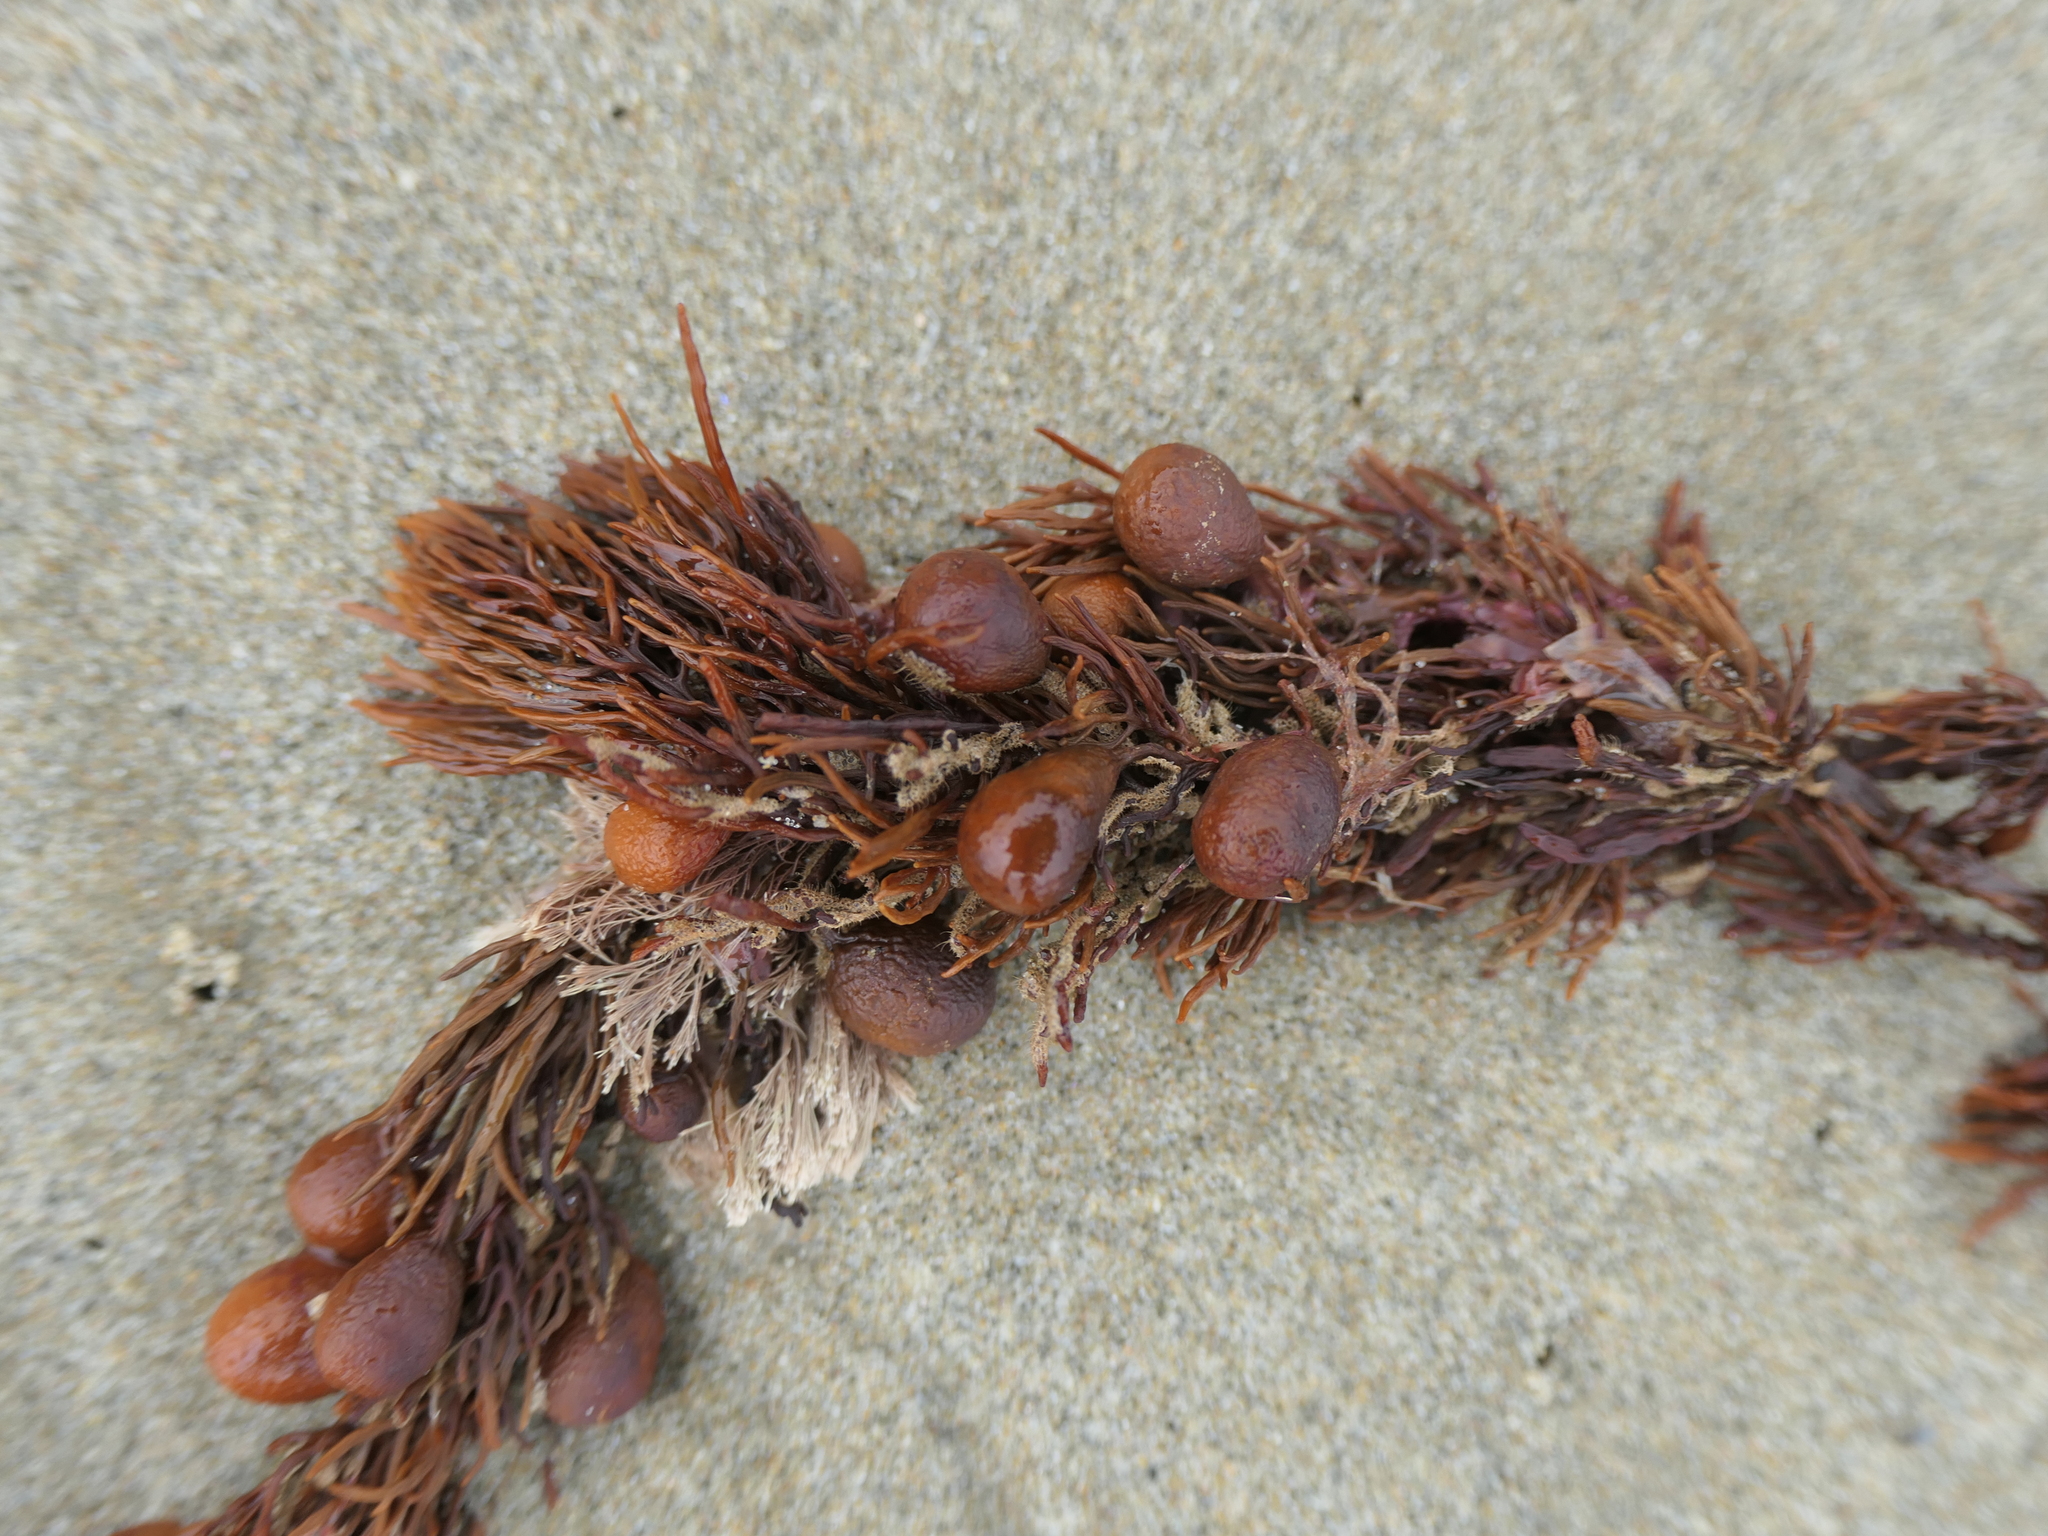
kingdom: Chromista
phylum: Ochrophyta
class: Phaeophyceae
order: Fucales
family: Sargassaceae
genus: Cystophora
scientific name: Cystophora retroflexa
